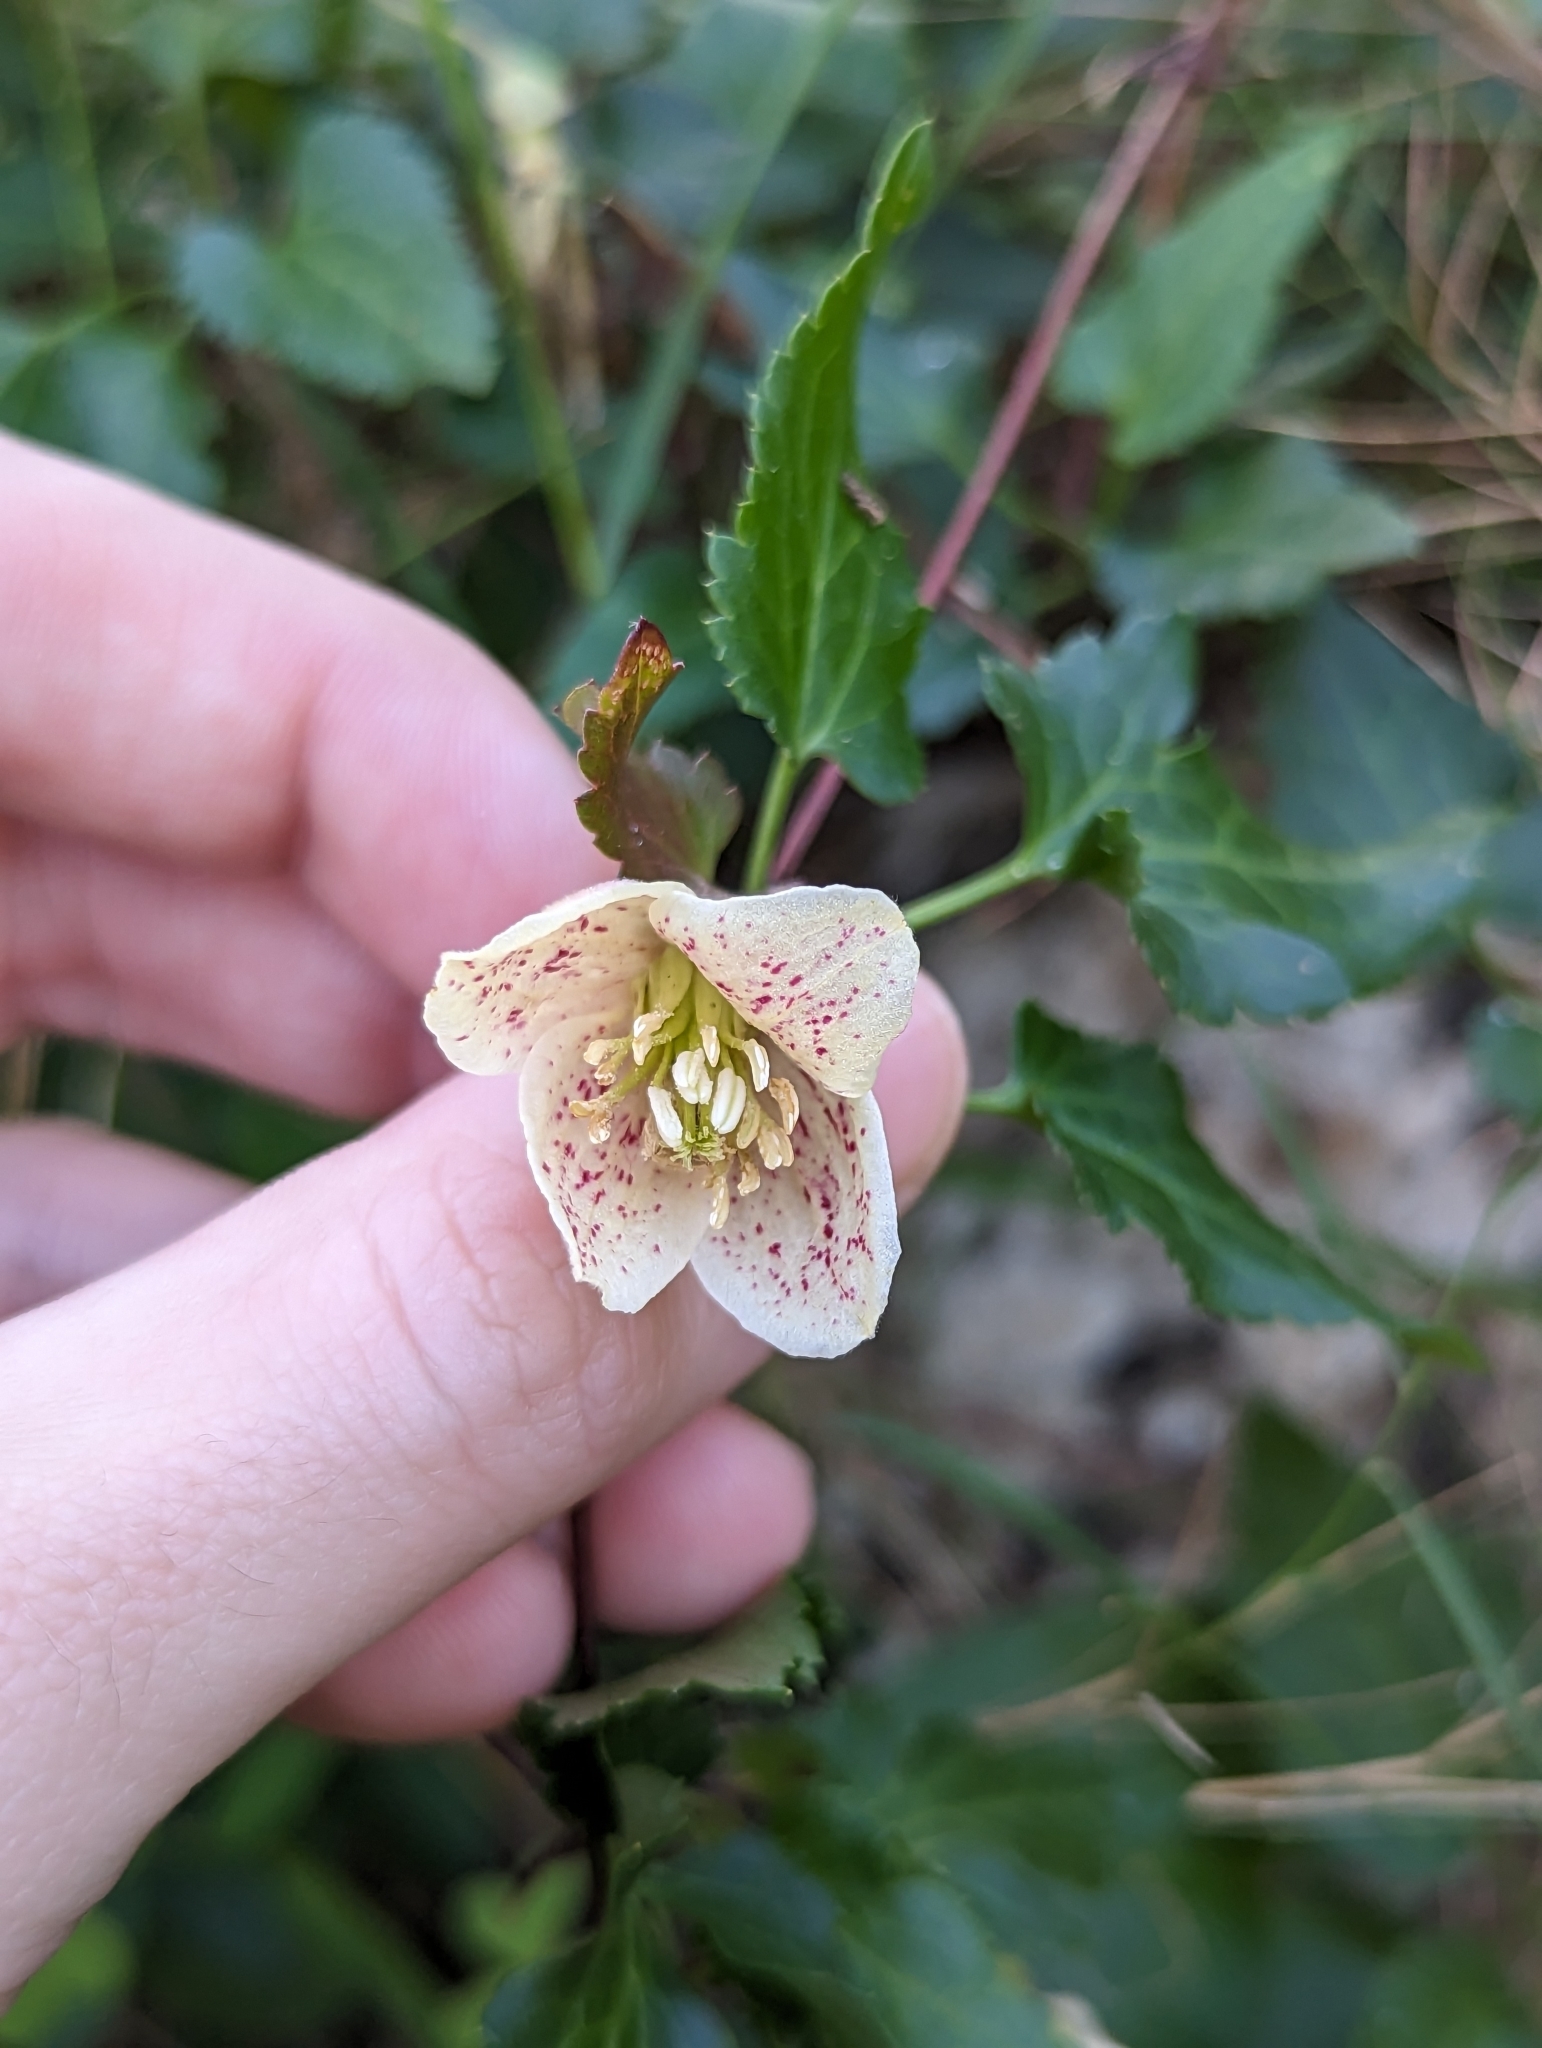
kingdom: Plantae
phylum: Tracheophyta
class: Magnoliopsida
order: Ranunculales
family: Ranunculaceae
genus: Clematis
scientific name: Clematis cirrhosa
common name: Early virgin's-bower
